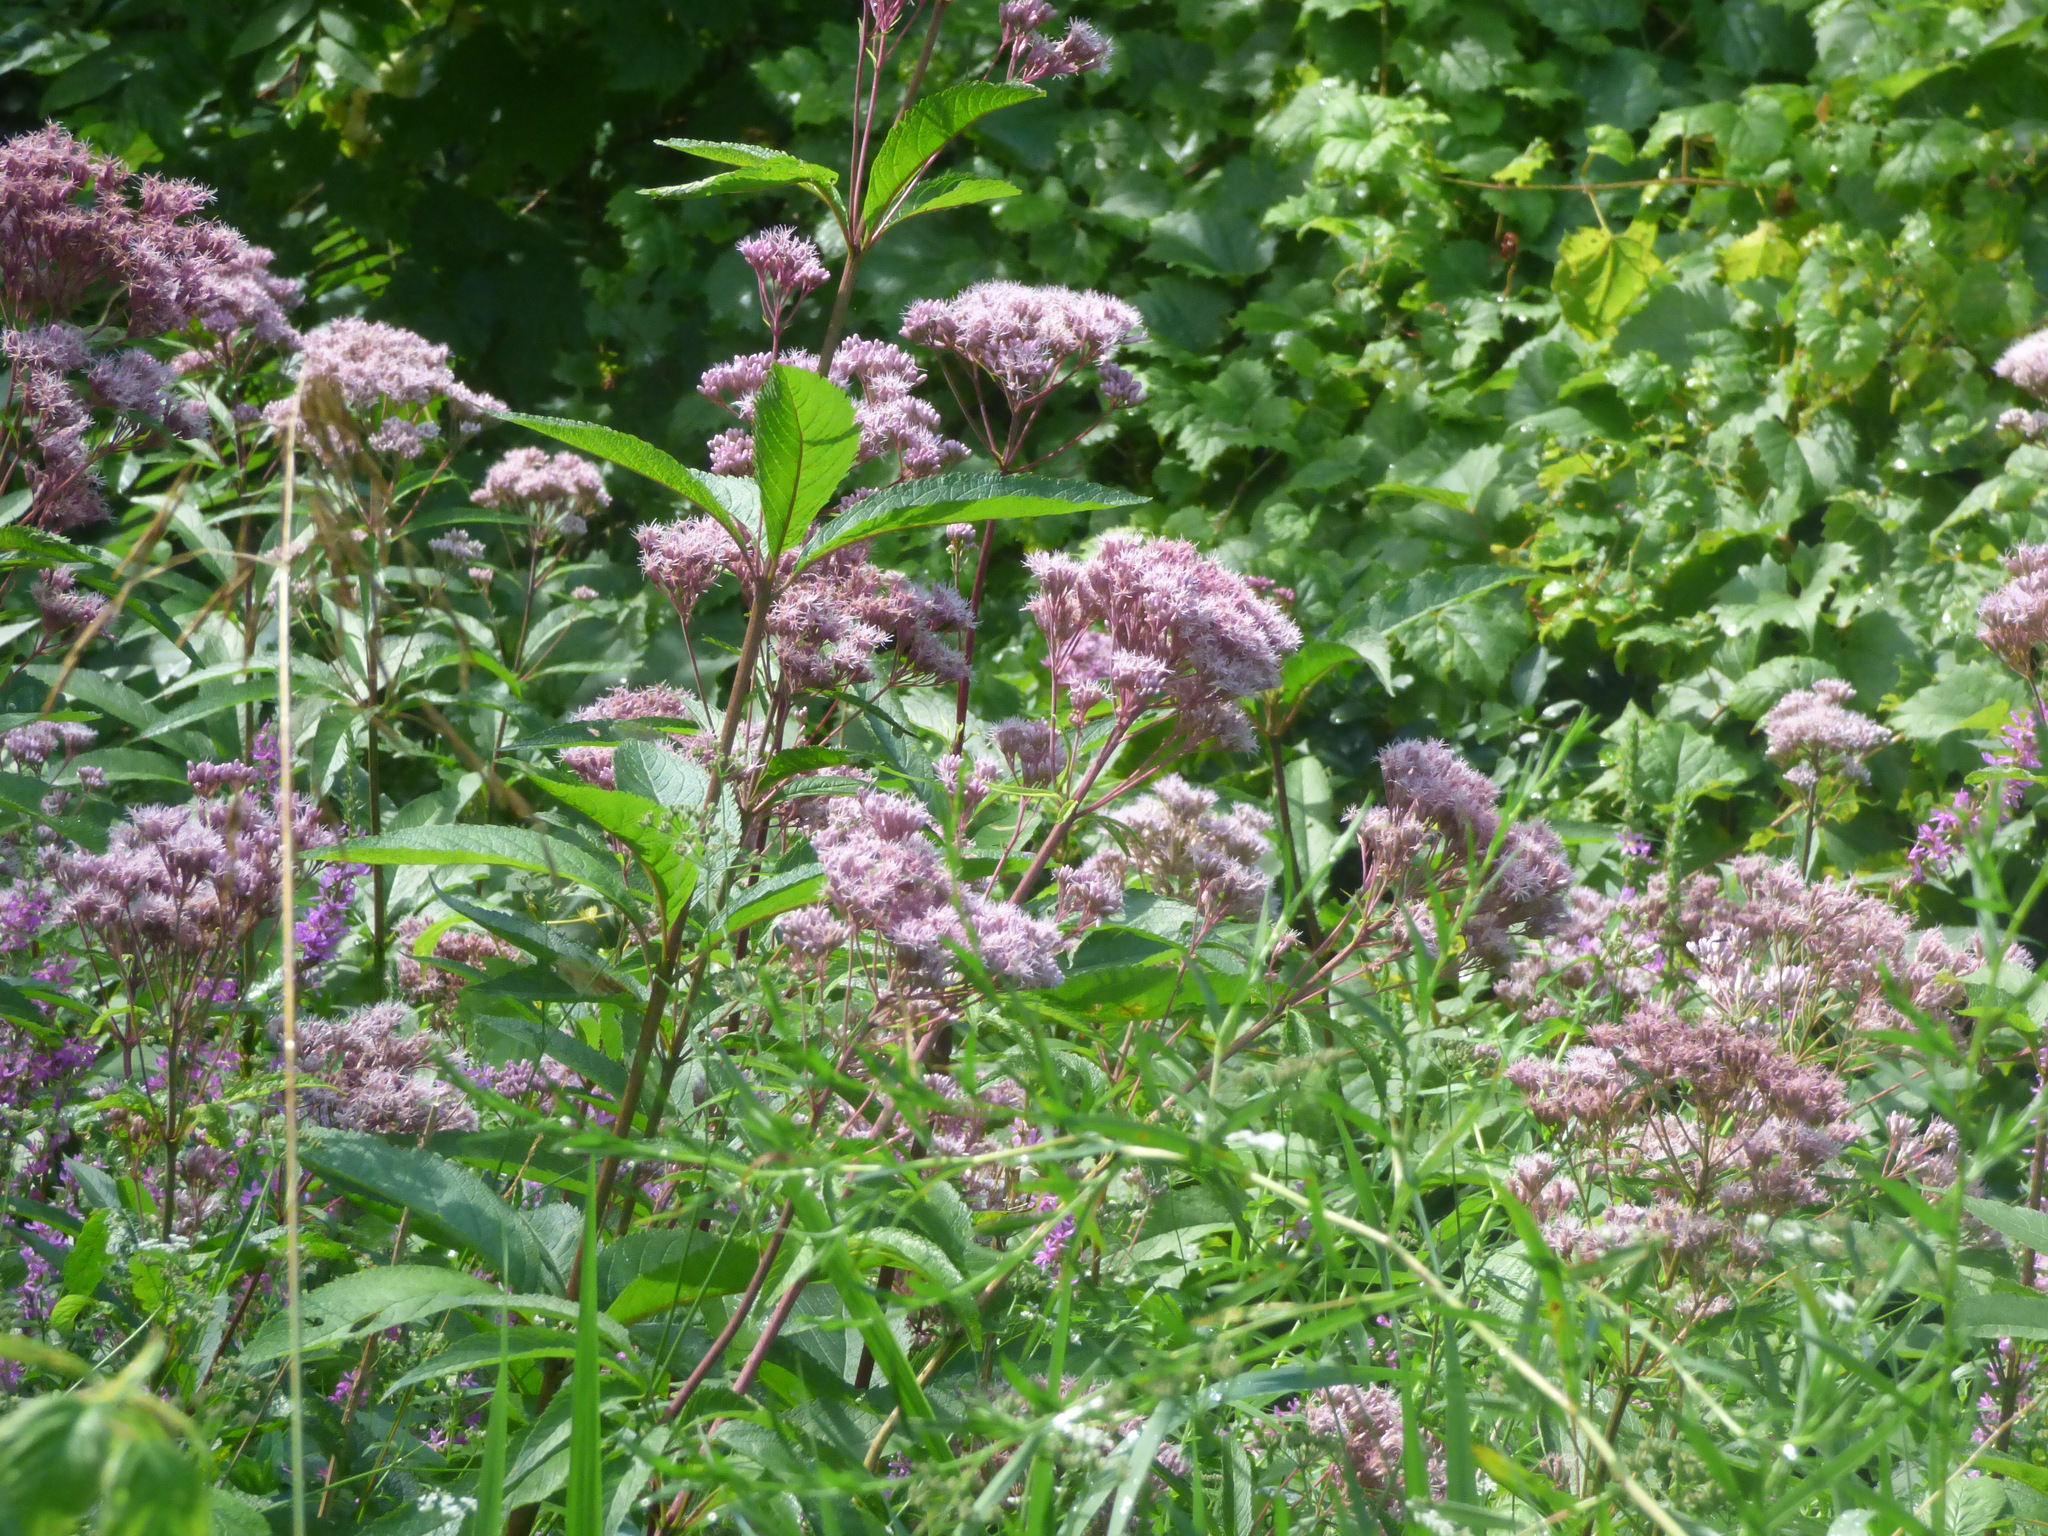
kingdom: Plantae
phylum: Tracheophyta
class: Magnoliopsida
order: Asterales
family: Asteraceae
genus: Eutrochium
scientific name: Eutrochium maculatum
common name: Spotted joe pye weed
